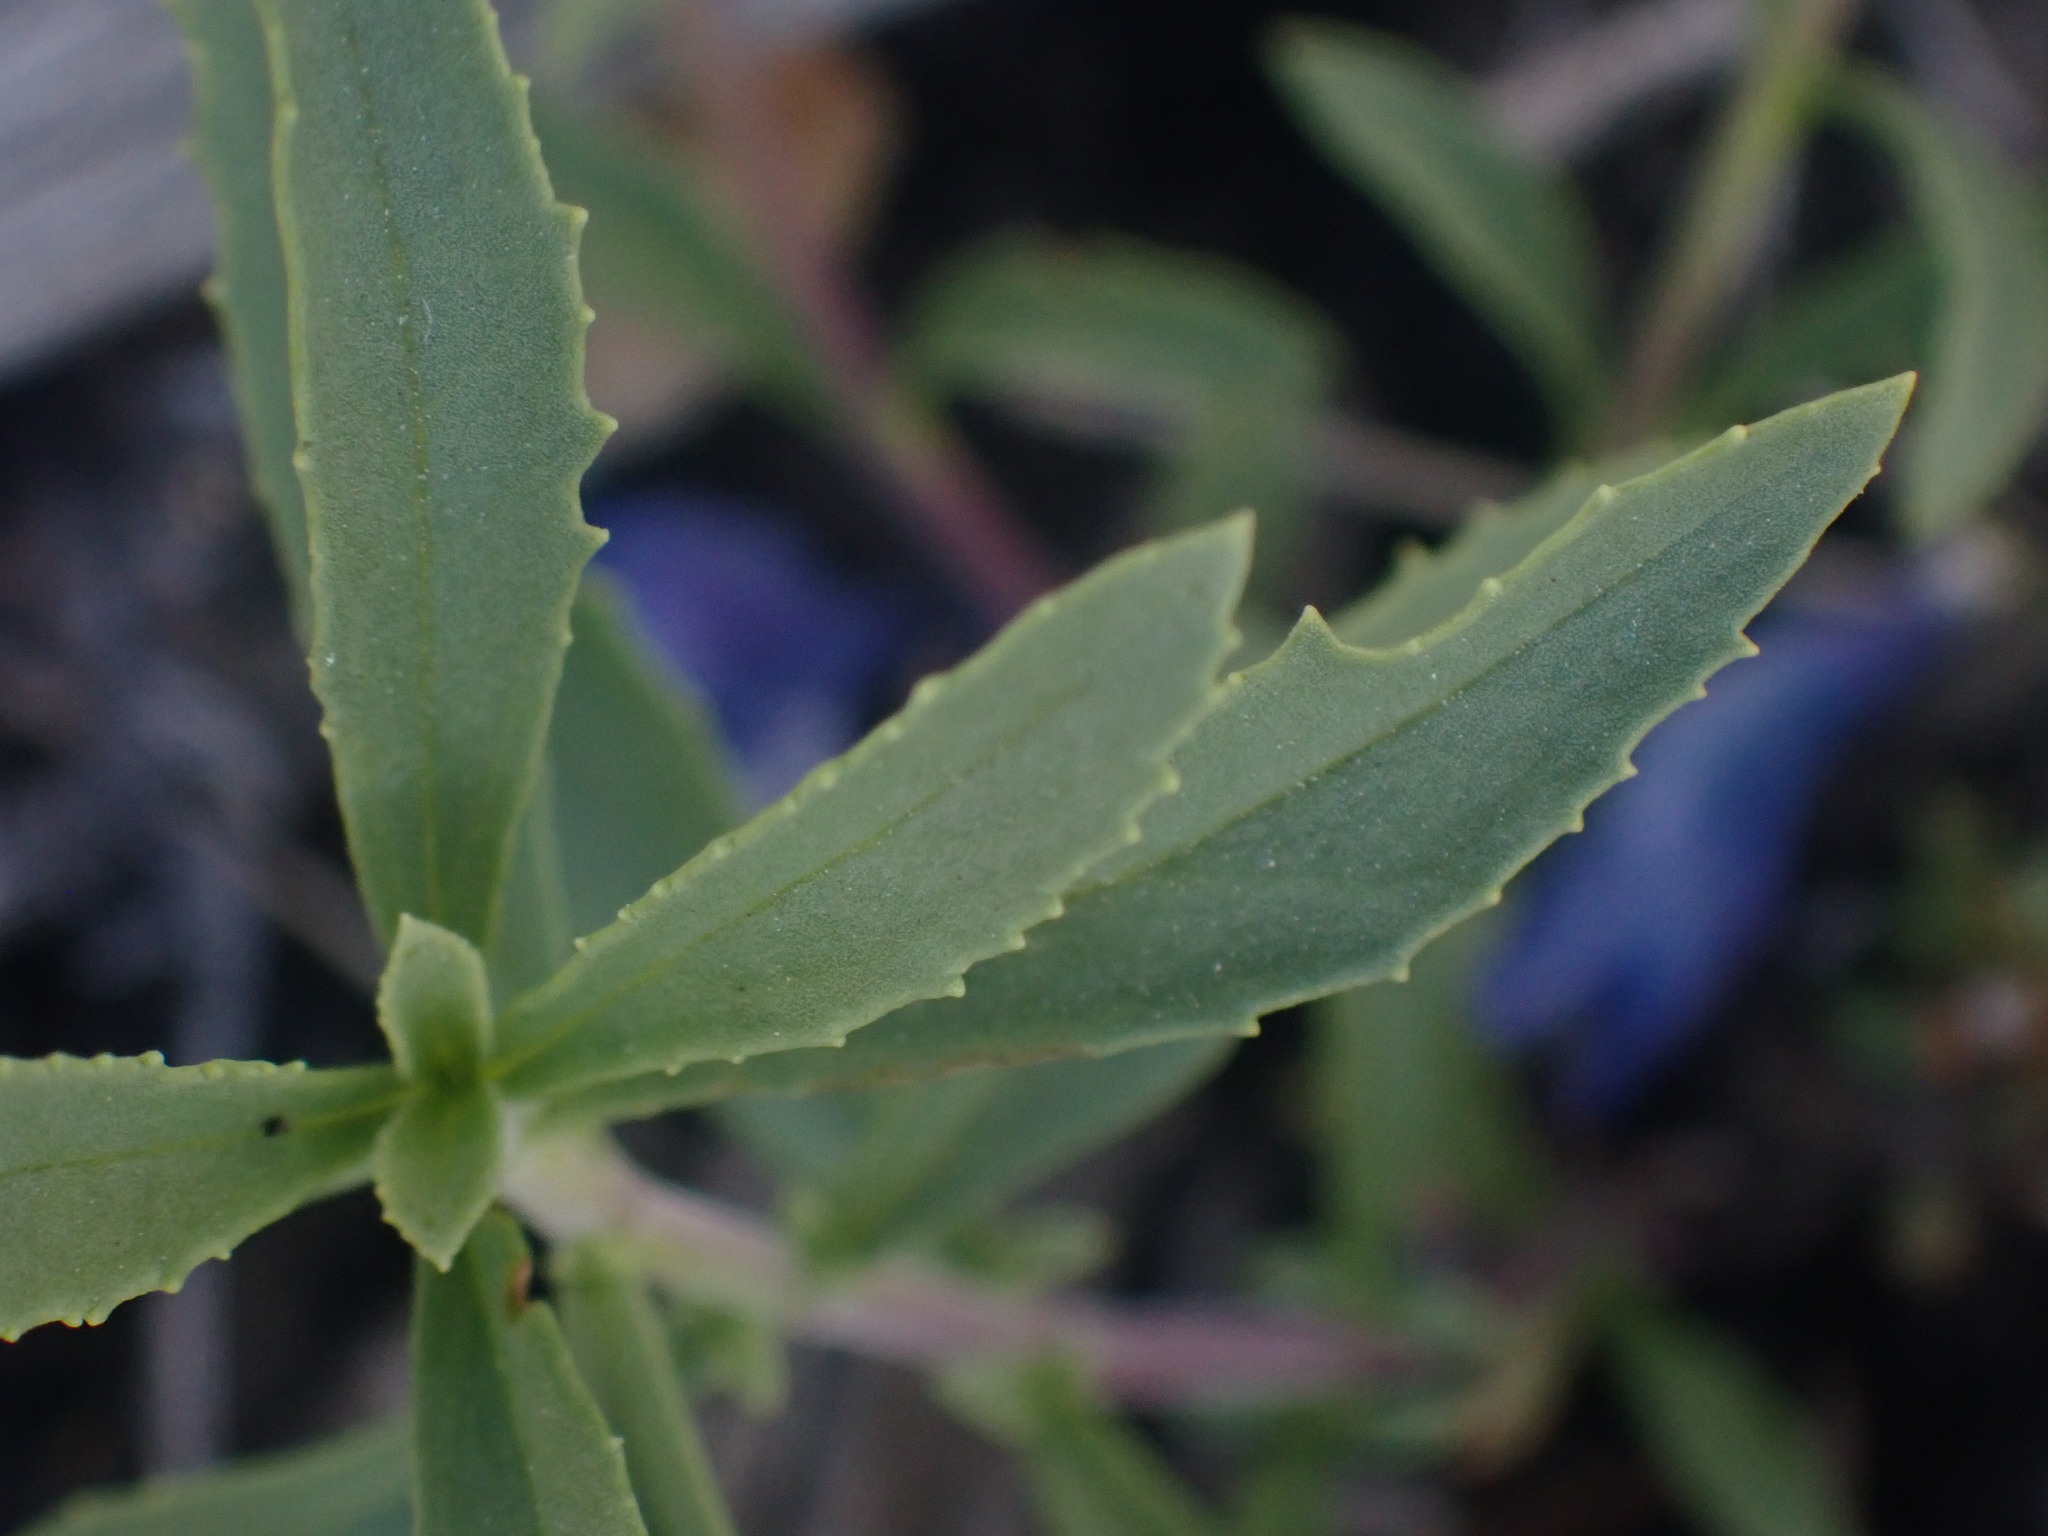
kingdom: Plantae
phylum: Tracheophyta
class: Magnoliopsida
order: Lamiales
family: Plantaginaceae
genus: Penstemon
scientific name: Penstemon fruticosus
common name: Bush penstemon
